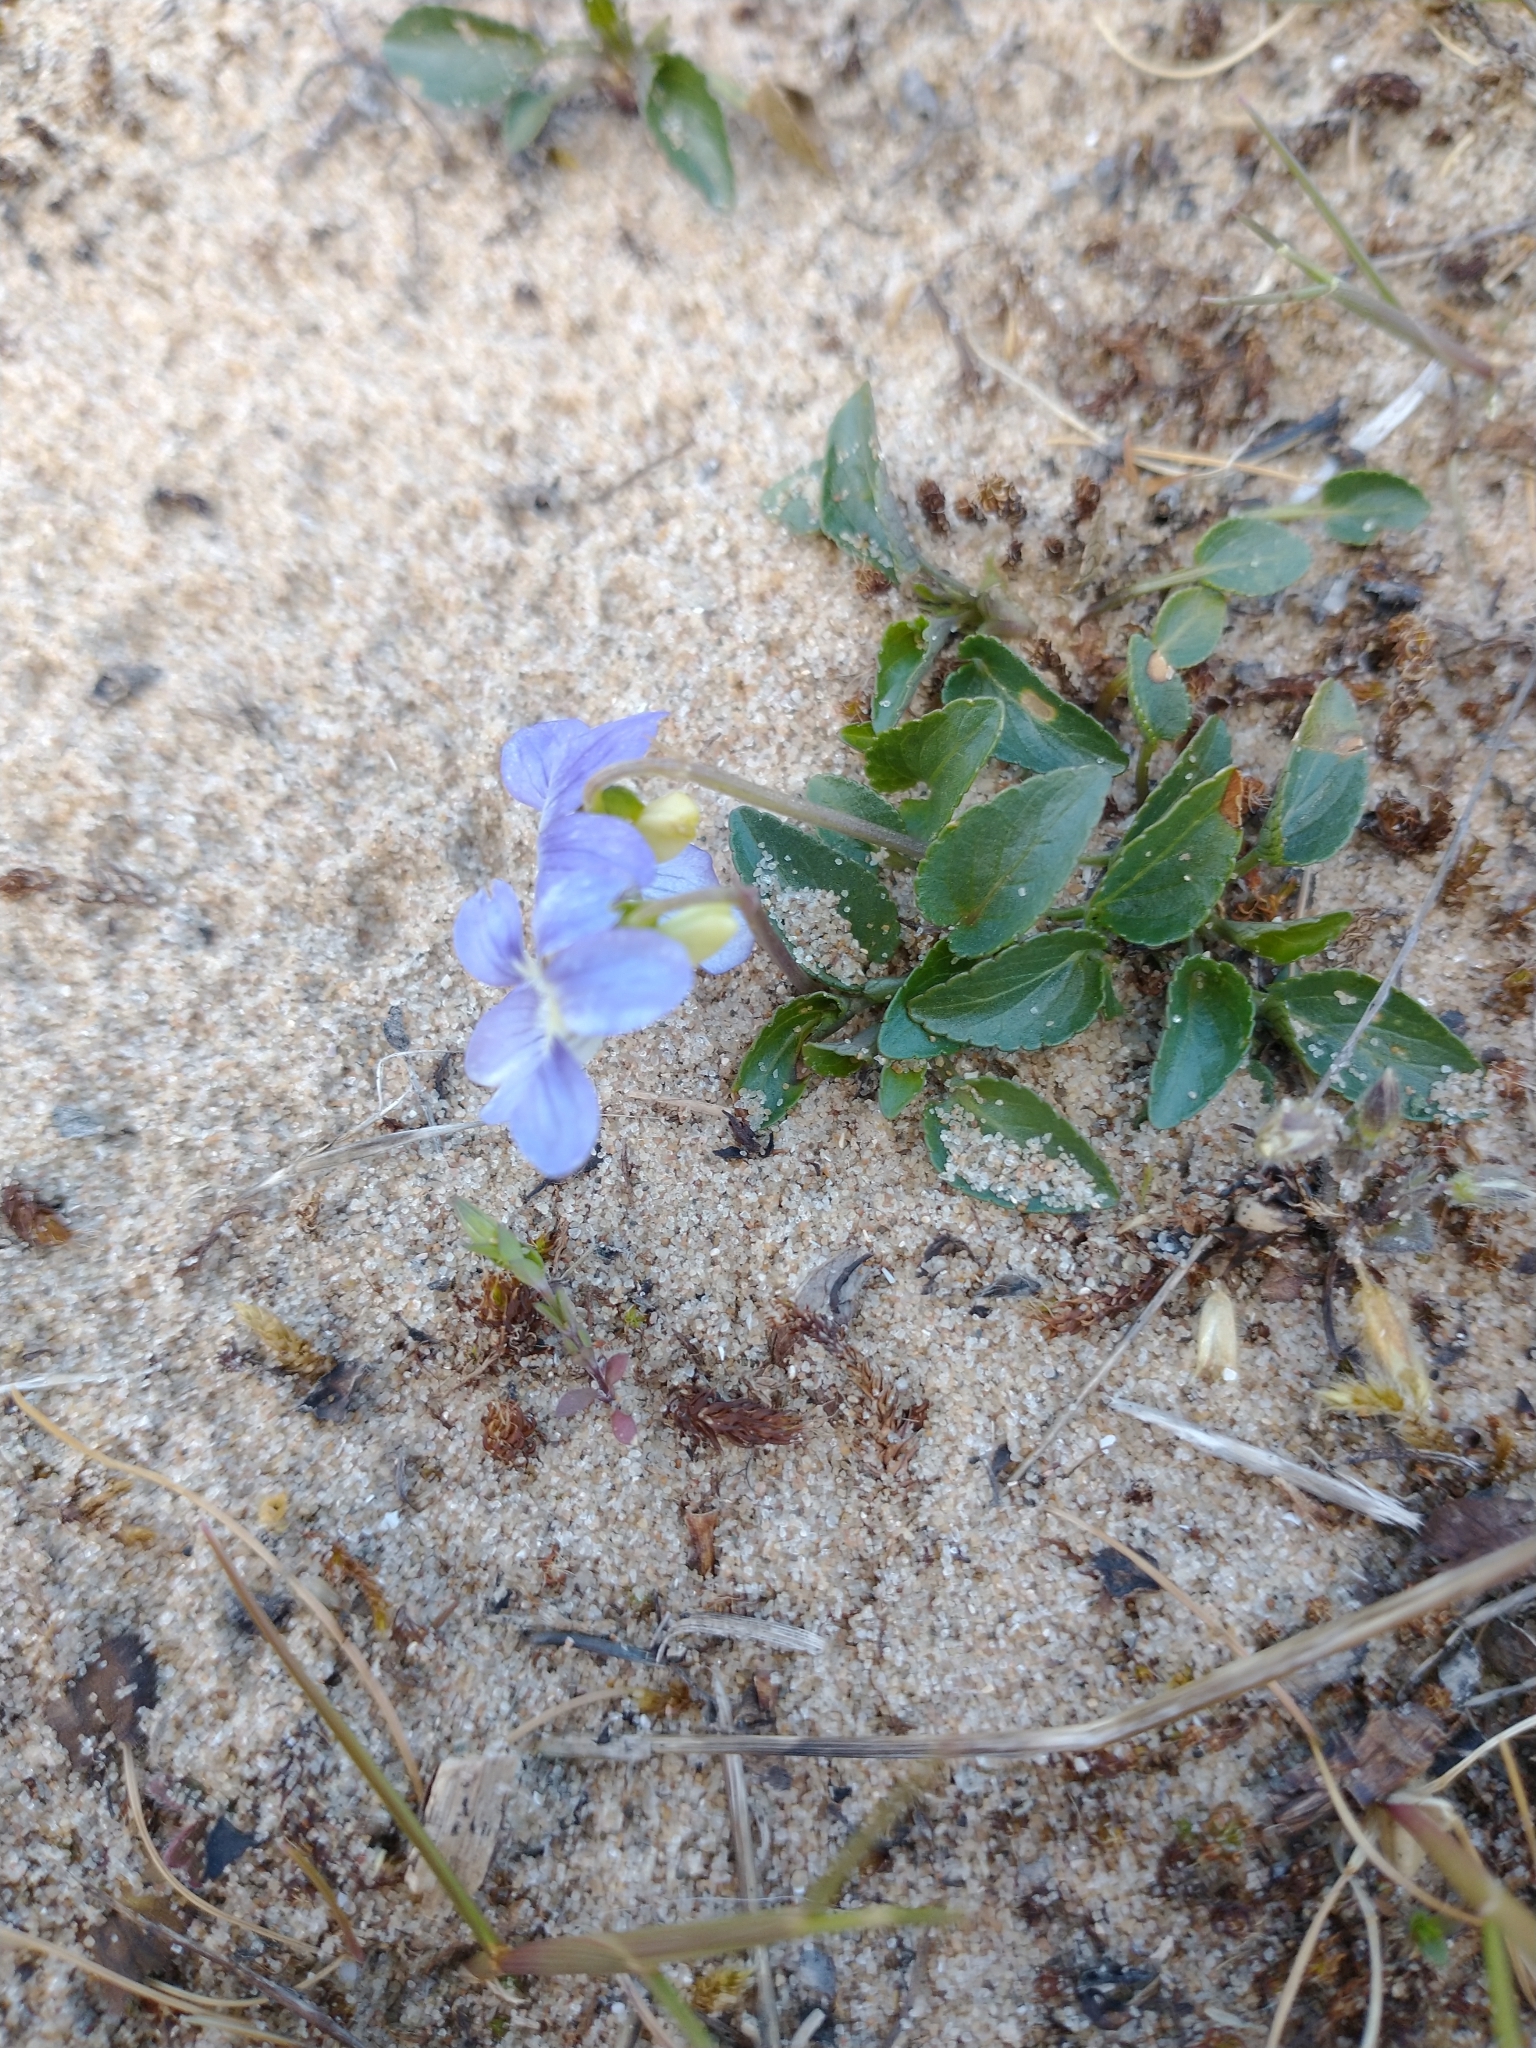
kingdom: Plantae
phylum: Tracheophyta
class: Magnoliopsida
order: Malpighiales
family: Violaceae
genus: Viola
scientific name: Viola canina
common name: Heath dog-violet
